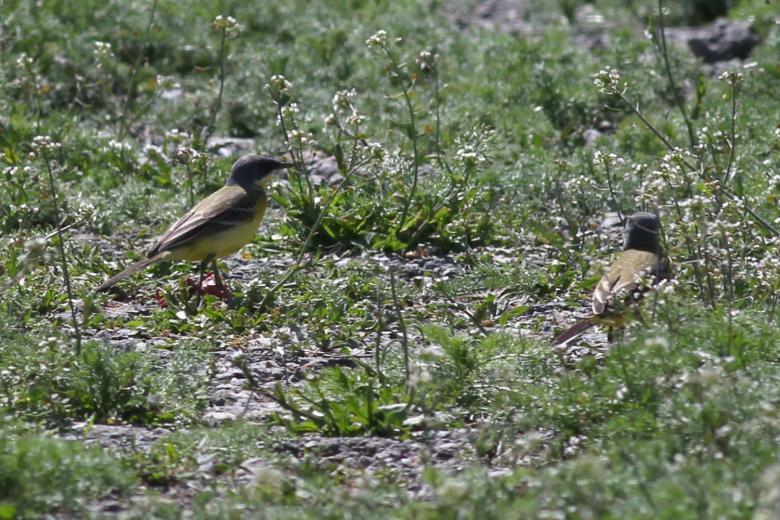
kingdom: Animalia
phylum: Chordata
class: Aves
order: Passeriformes
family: Motacillidae
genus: Motacilla
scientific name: Motacilla flava
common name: Western yellow wagtail
